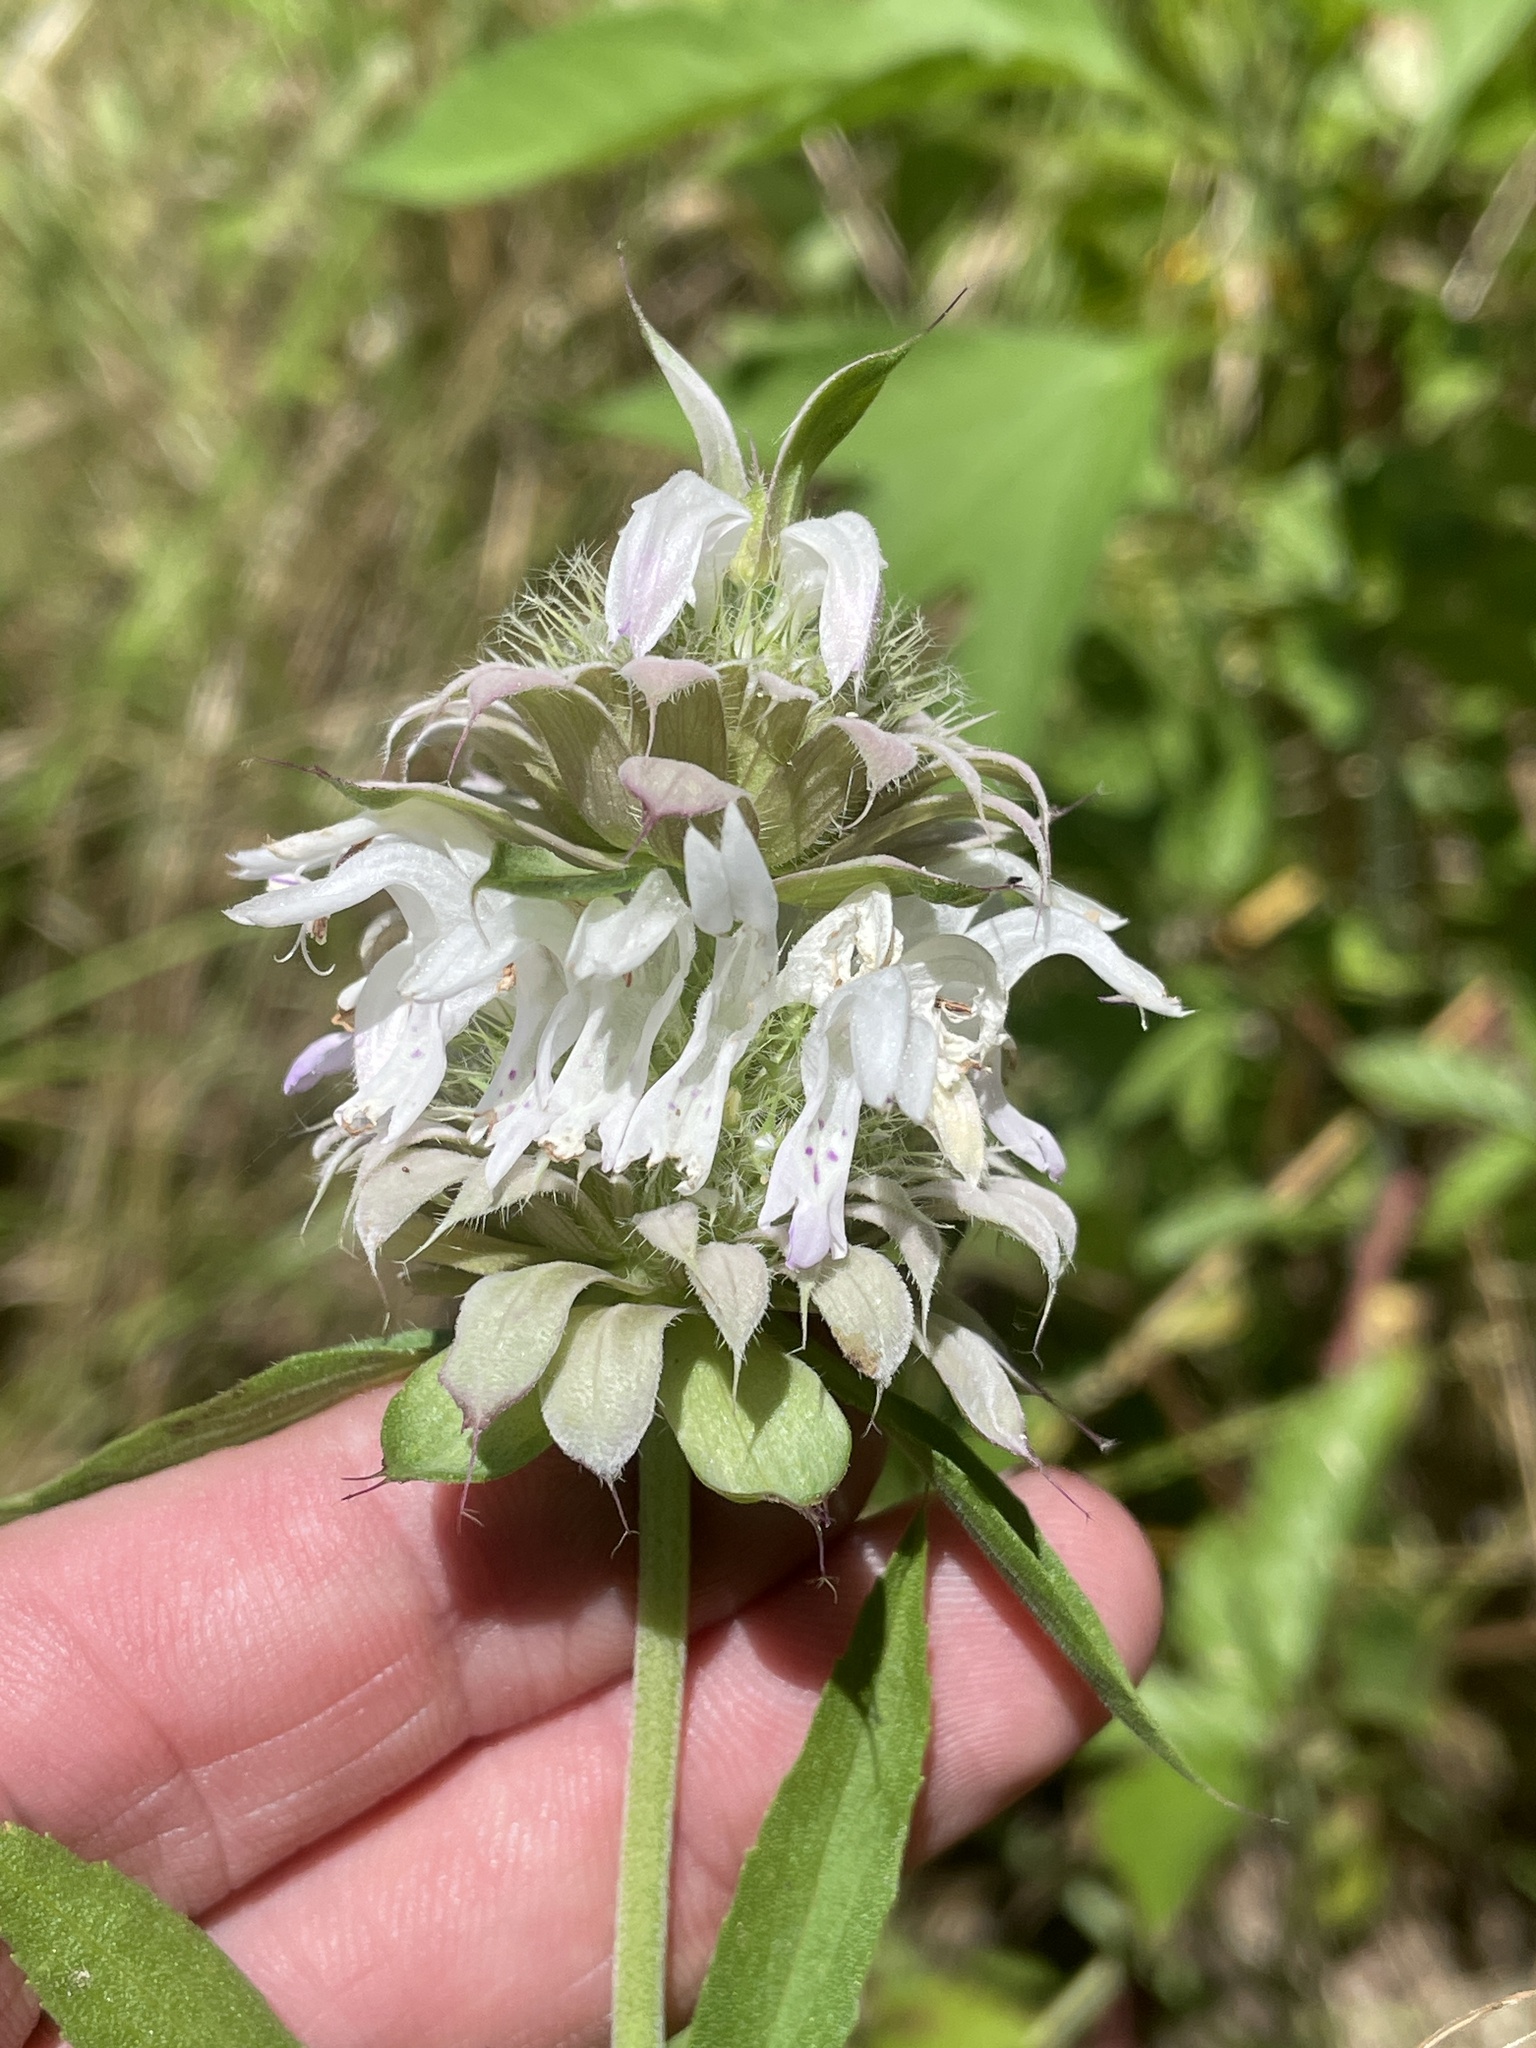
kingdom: Plantae
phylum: Tracheophyta
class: Magnoliopsida
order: Lamiales
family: Lamiaceae
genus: Monarda
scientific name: Monarda citriodora
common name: Lemon beebalm
